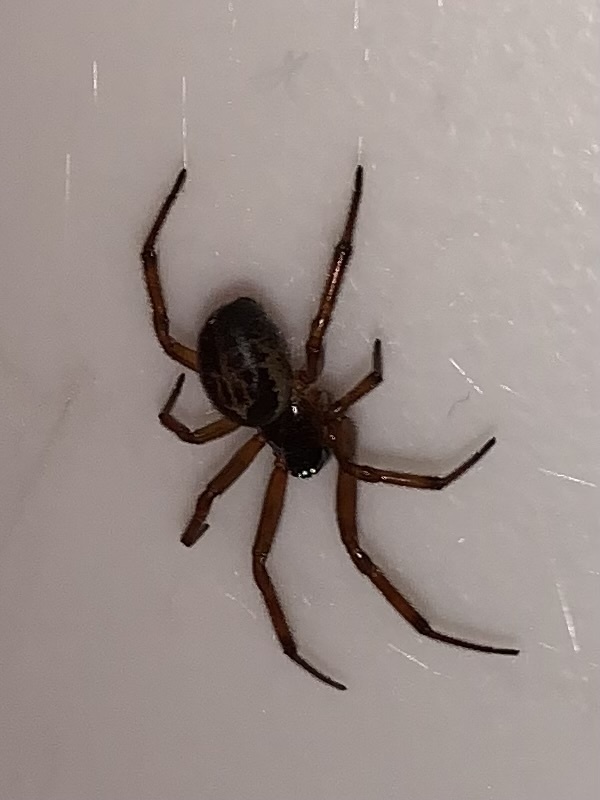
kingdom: Animalia
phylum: Arthropoda
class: Arachnida
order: Araneae
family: Theridiidae
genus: Steatoda
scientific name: Steatoda nobilis
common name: Cobweb weaver
